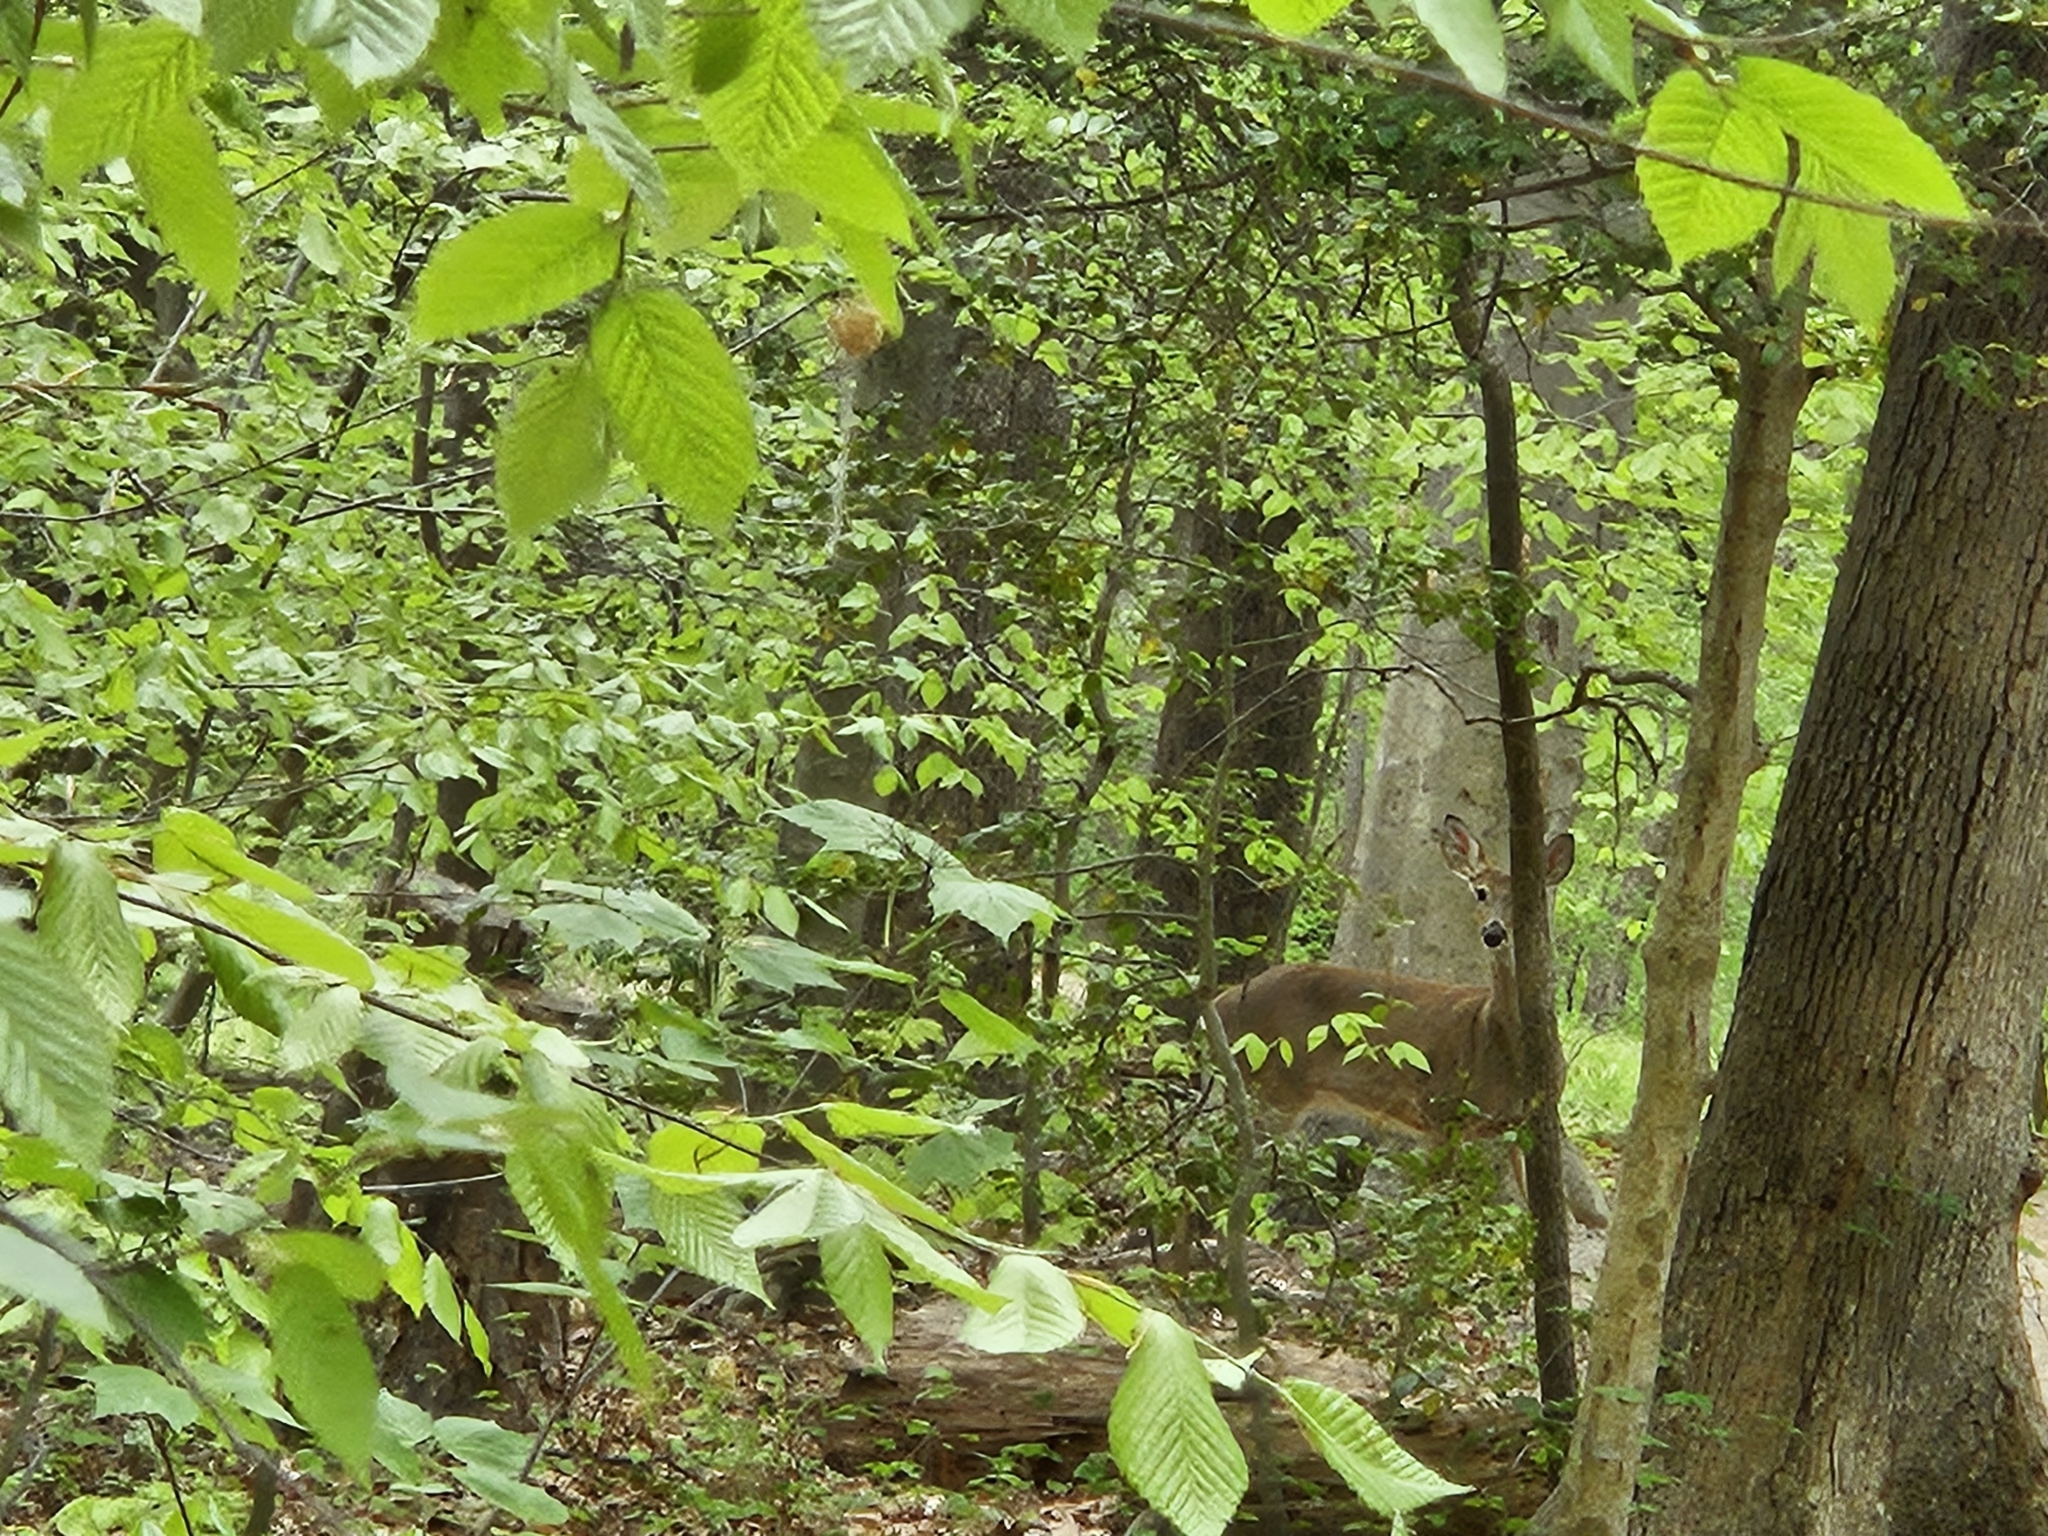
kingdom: Animalia
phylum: Chordata
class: Mammalia
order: Artiodactyla
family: Cervidae
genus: Odocoileus
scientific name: Odocoileus virginianus
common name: White-tailed deer
